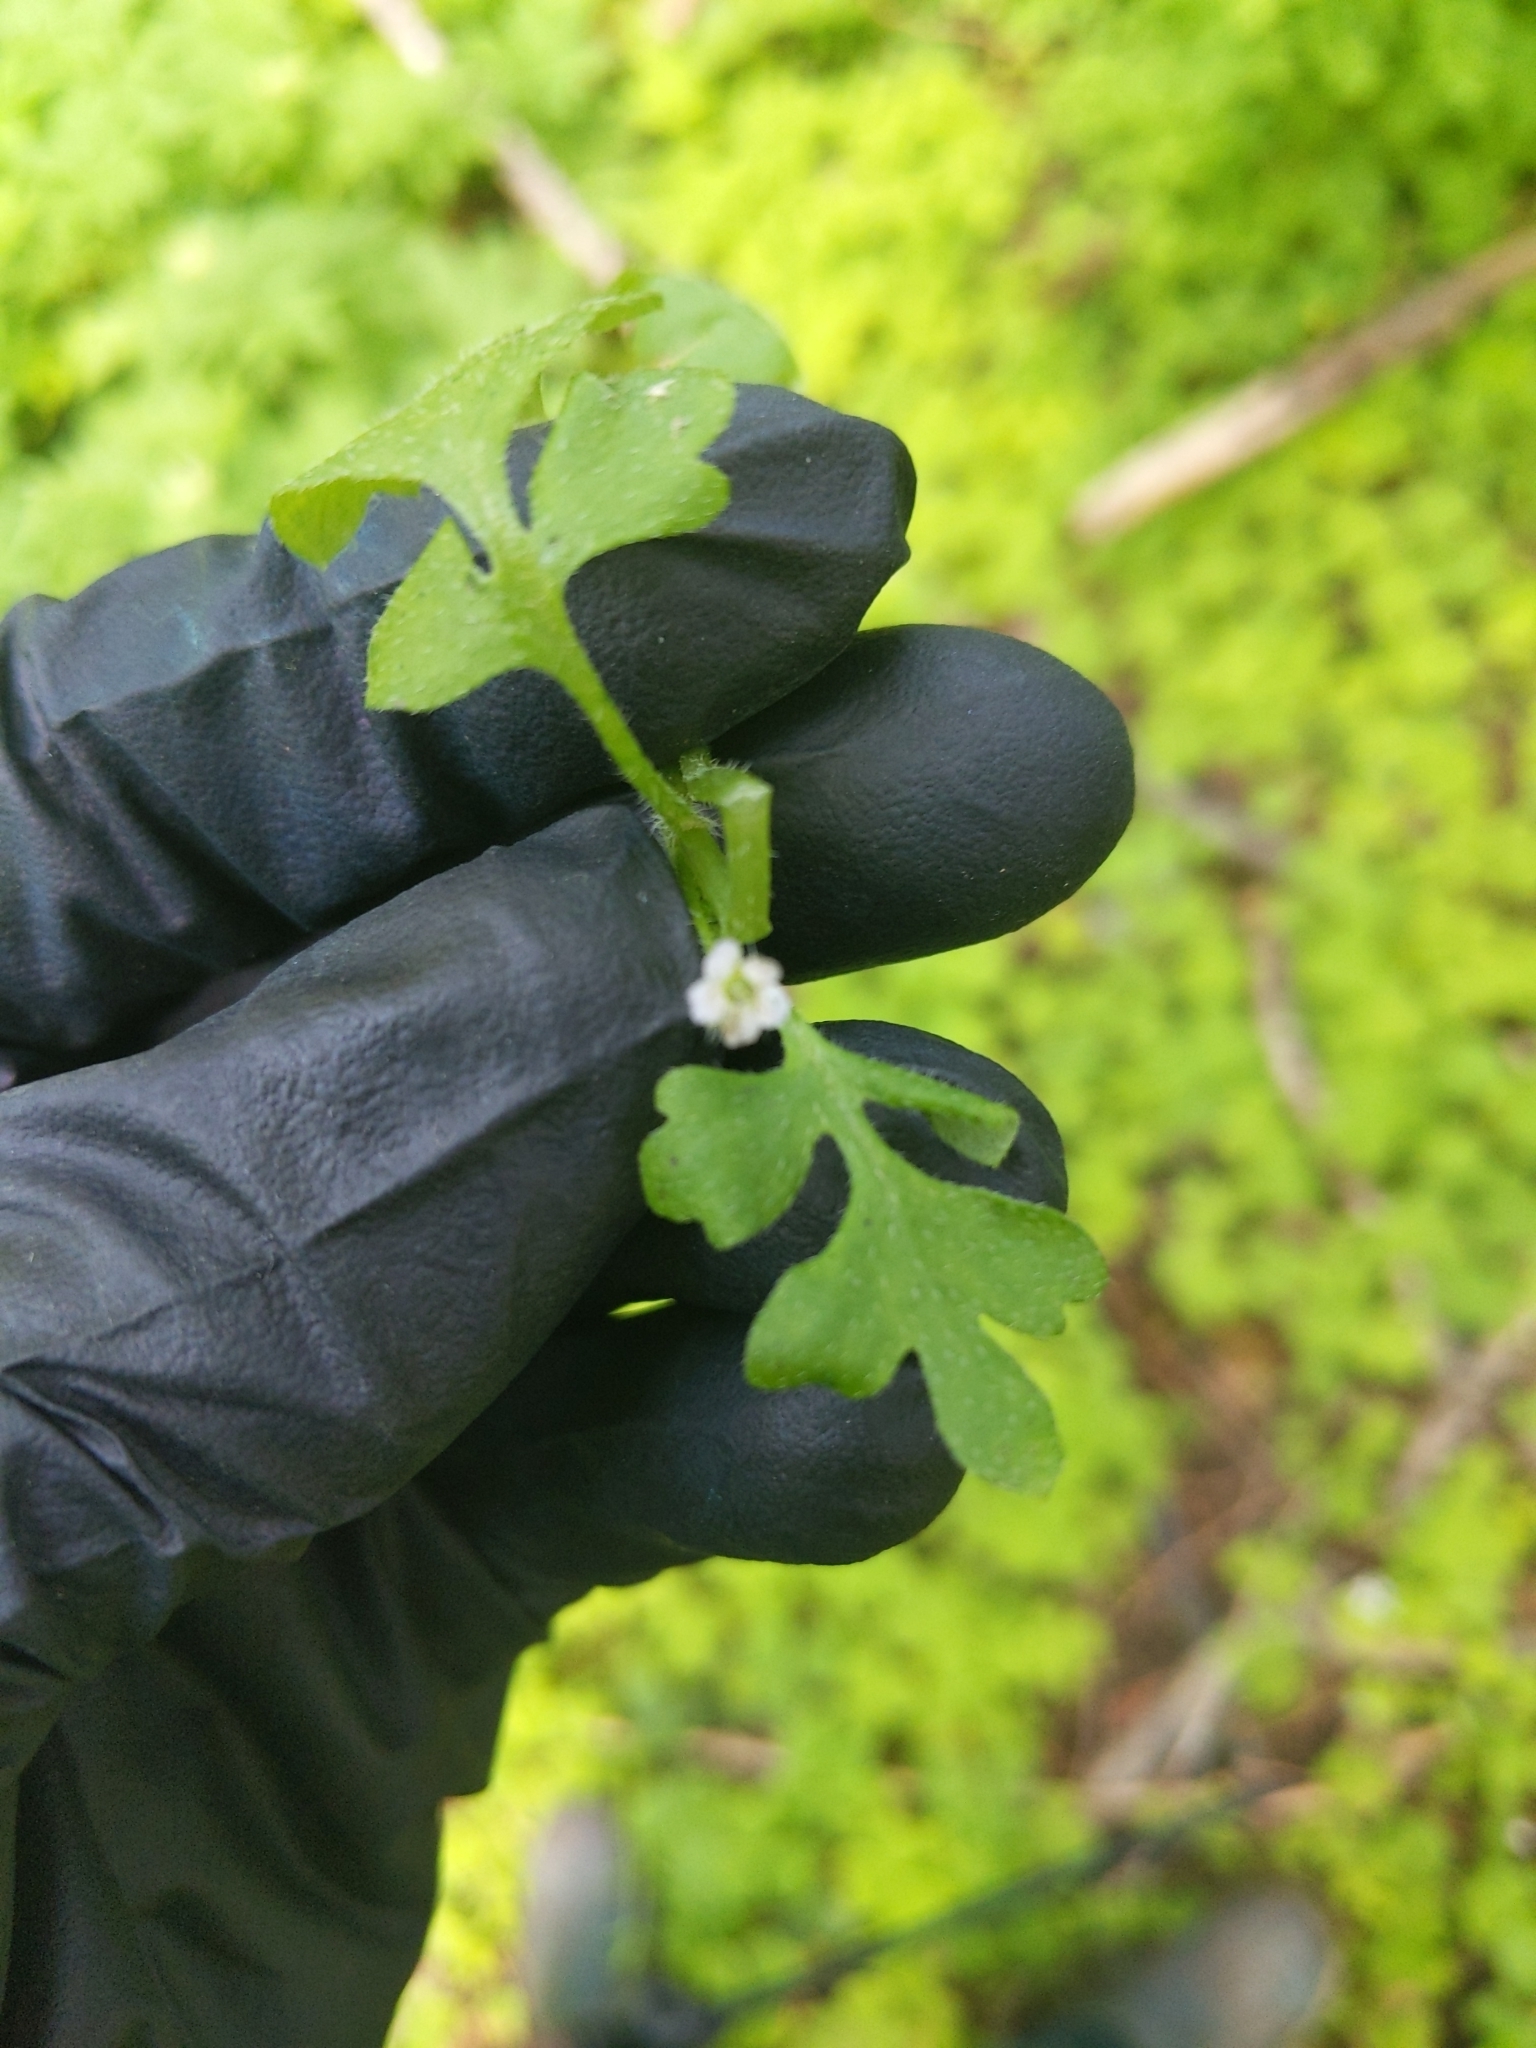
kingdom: Plantae
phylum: Tracheophyta
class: Magnoliopsida
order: Boraginales
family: Hydrophyllaceae
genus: Nemophila
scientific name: Nemophila parviflora
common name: Small-flowered baby-blue-eyes
